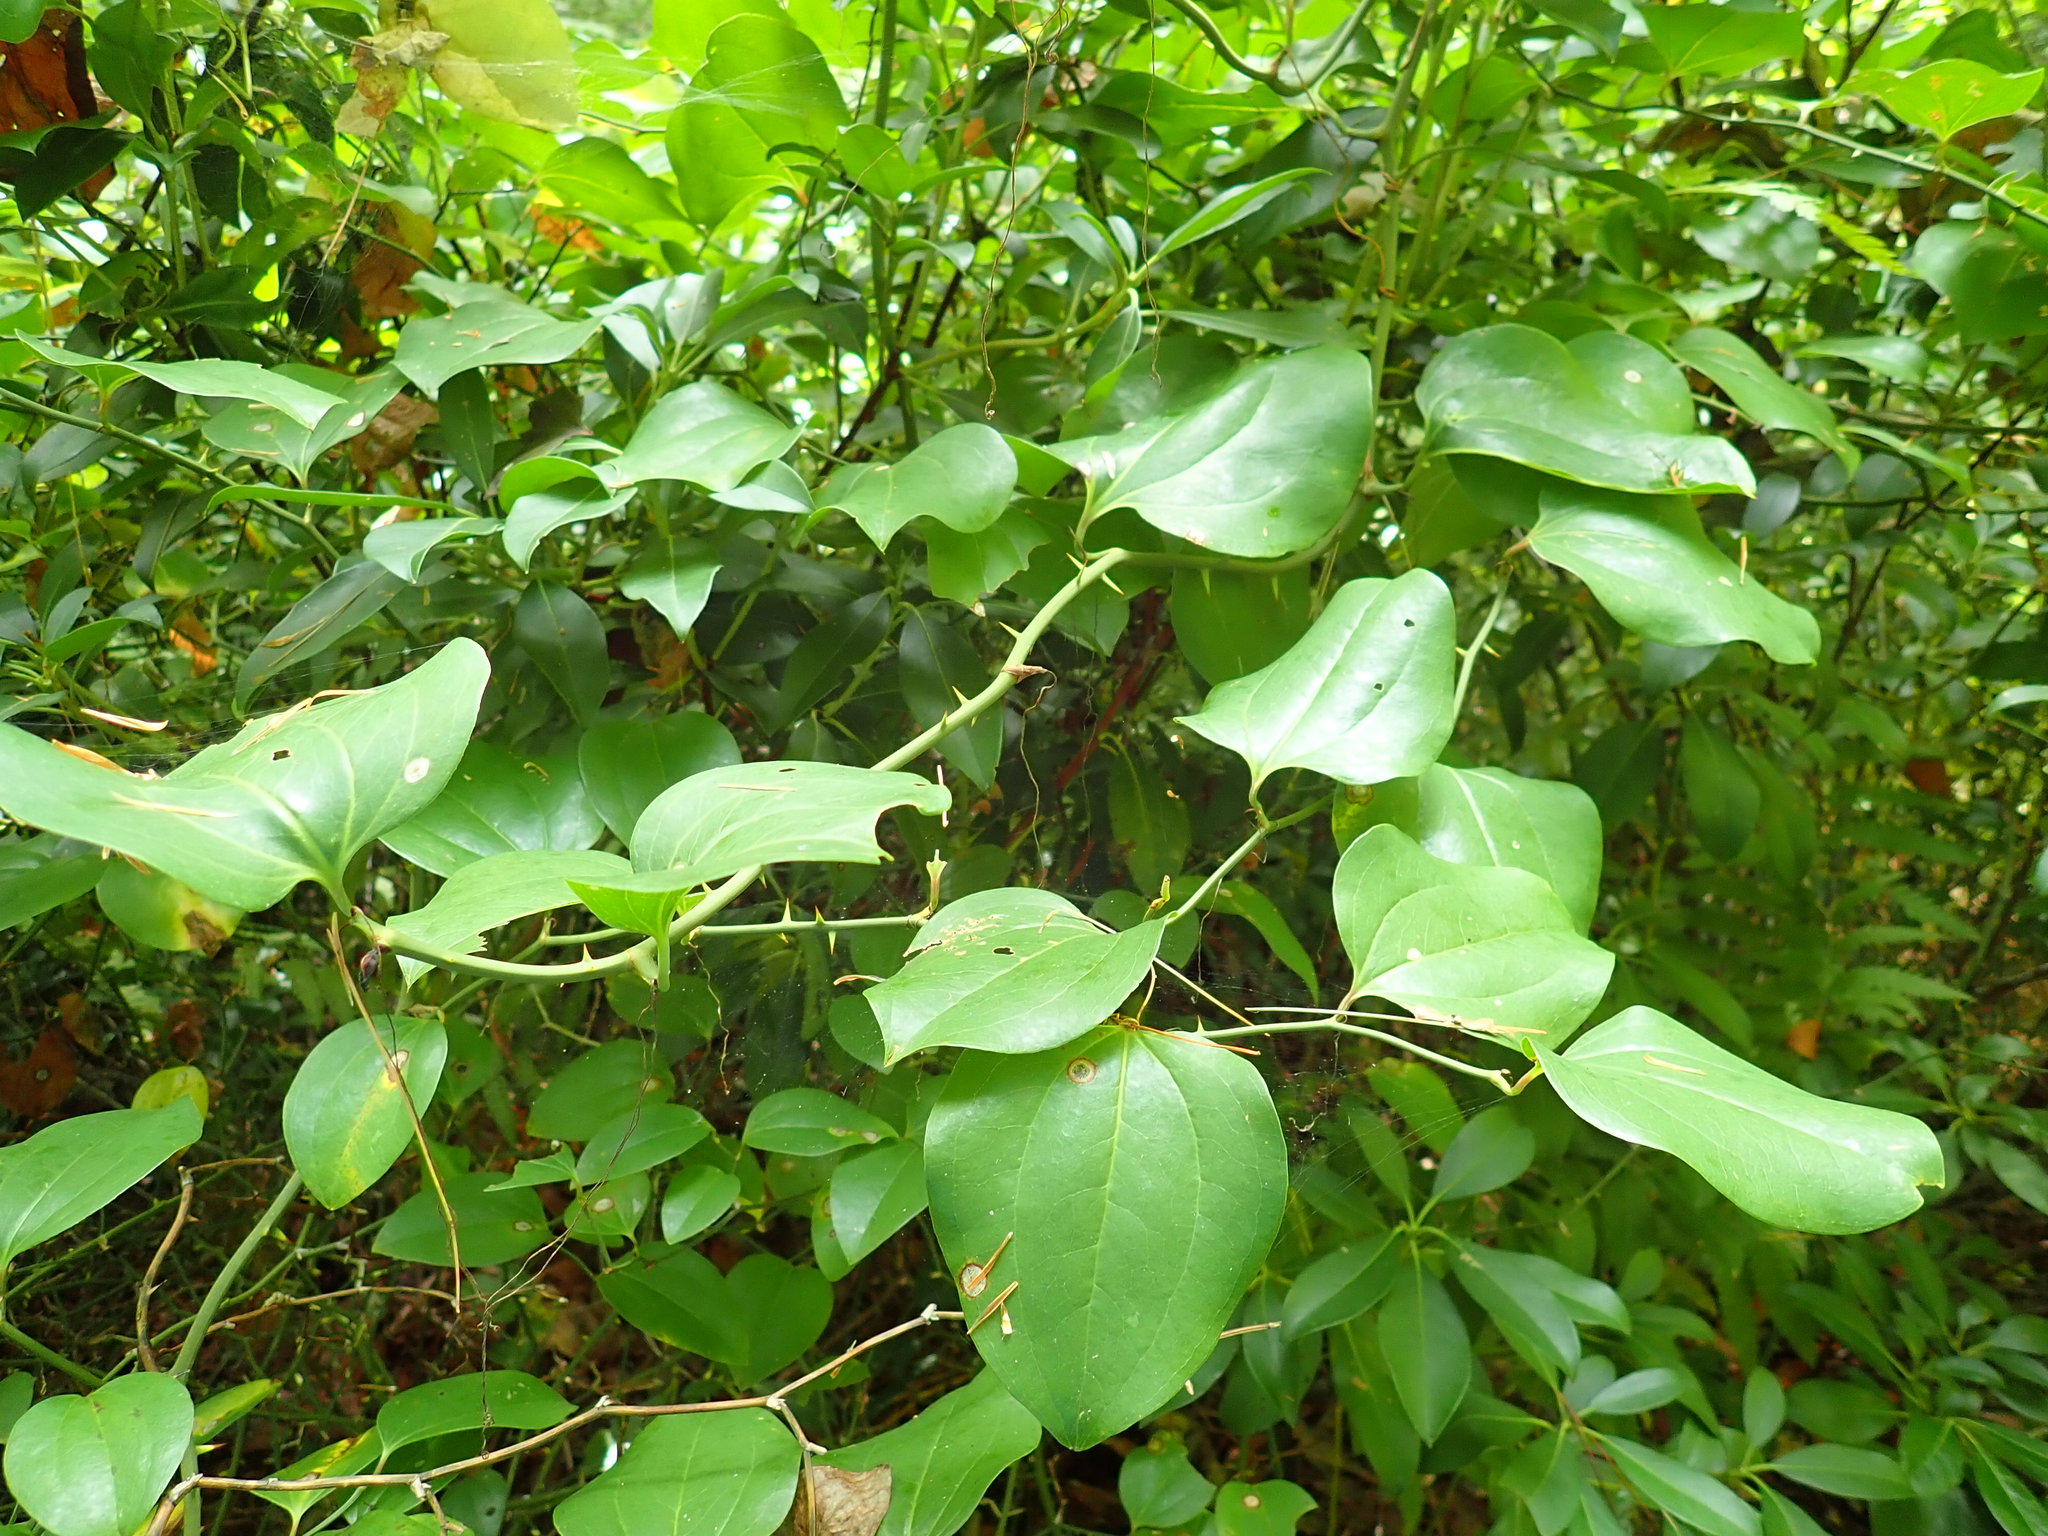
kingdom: Plantae
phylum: Tracheophyta
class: Liliopsida
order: Liliales
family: Smilacaceae
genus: Smilax
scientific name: Smilax rotundifolia
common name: Bullbriar
